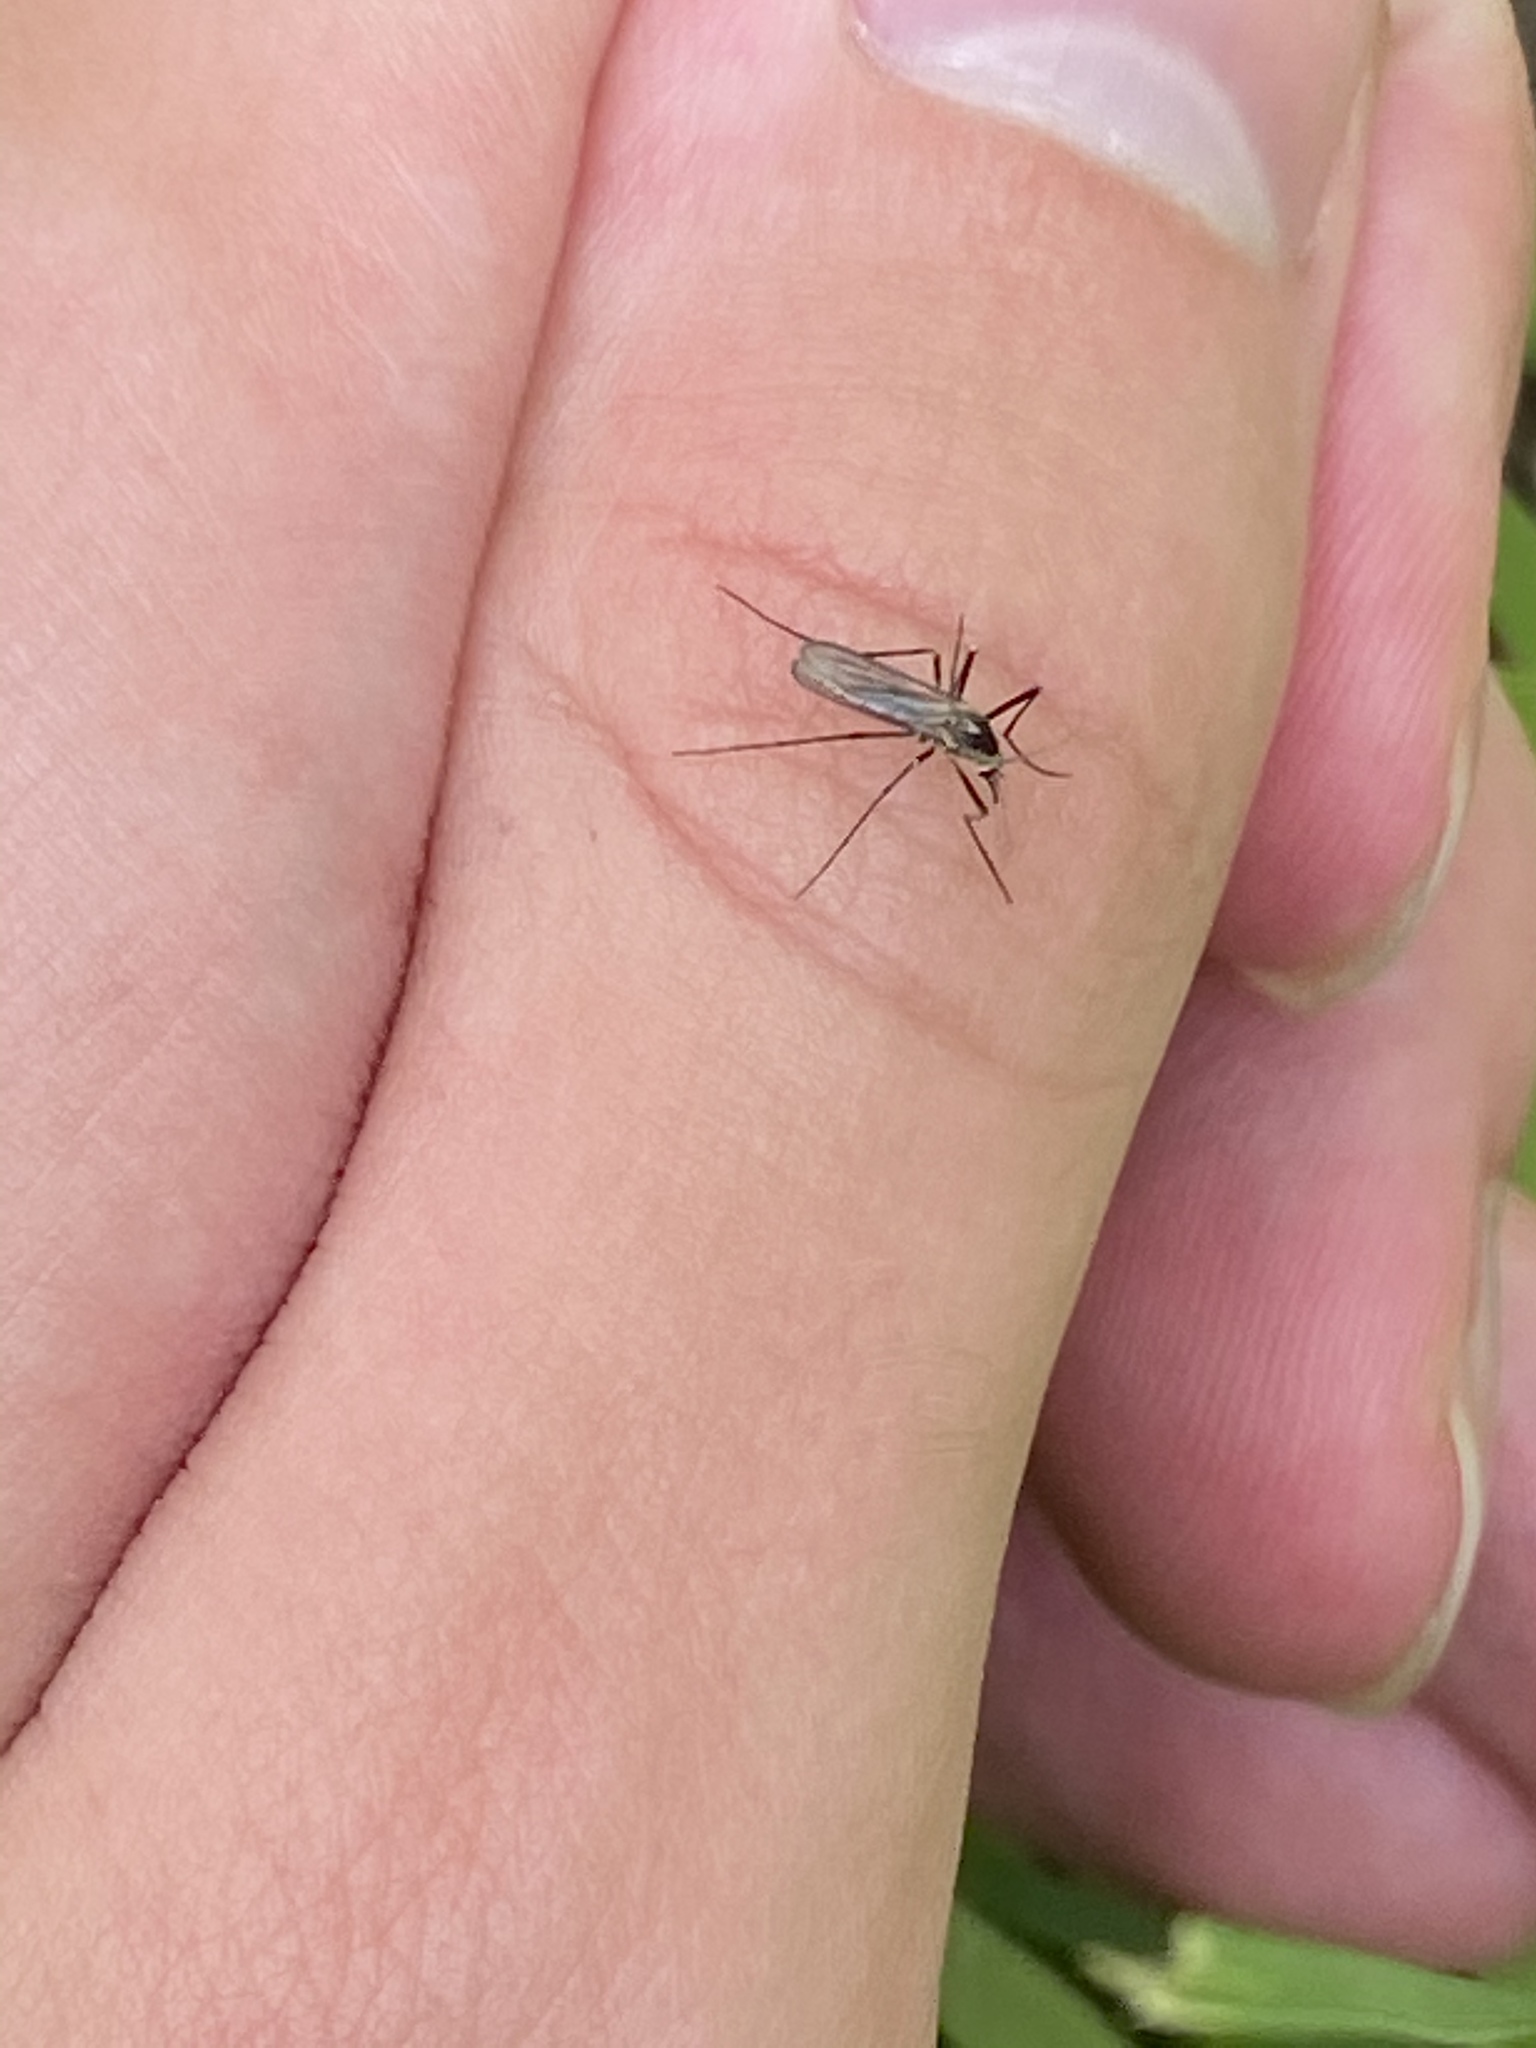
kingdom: Animalia
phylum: Arthropoda
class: Insecta
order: Diptera
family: Culicidae
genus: Aedes
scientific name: Aedes triseriatus
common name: Eastern treehole mosquito
